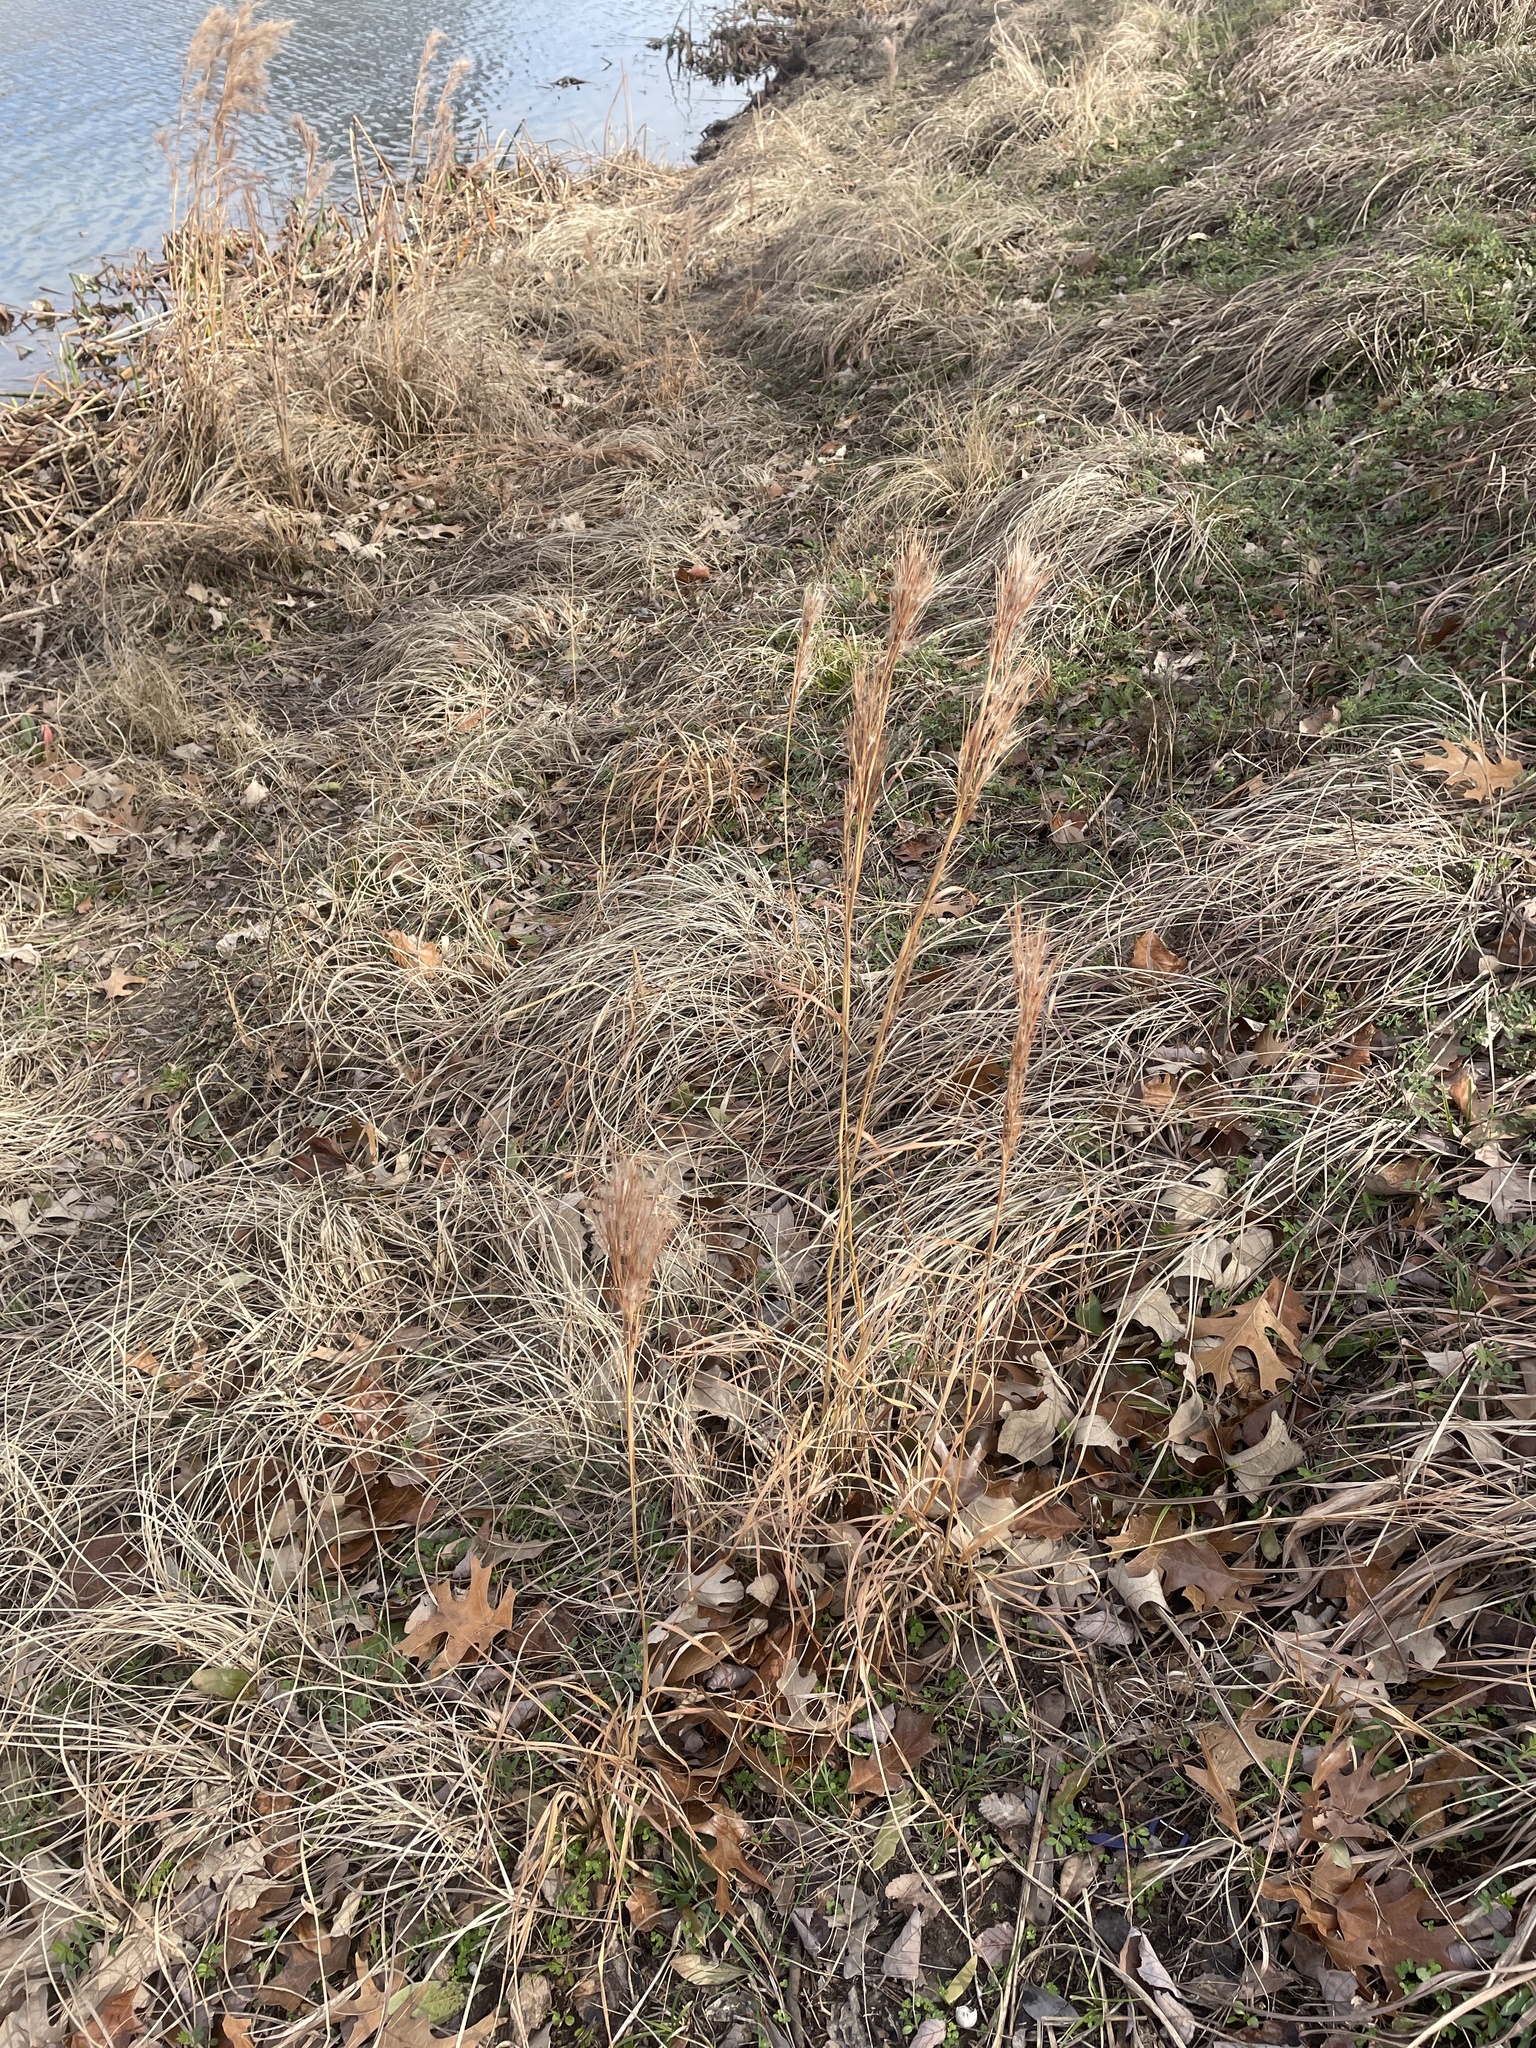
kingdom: Plantae
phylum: Tracheophyta
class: Liliopsida
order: Poales
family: Poaceae
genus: Andropogon
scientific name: Andropogon tenuispatheus
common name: Bushy bluestem
